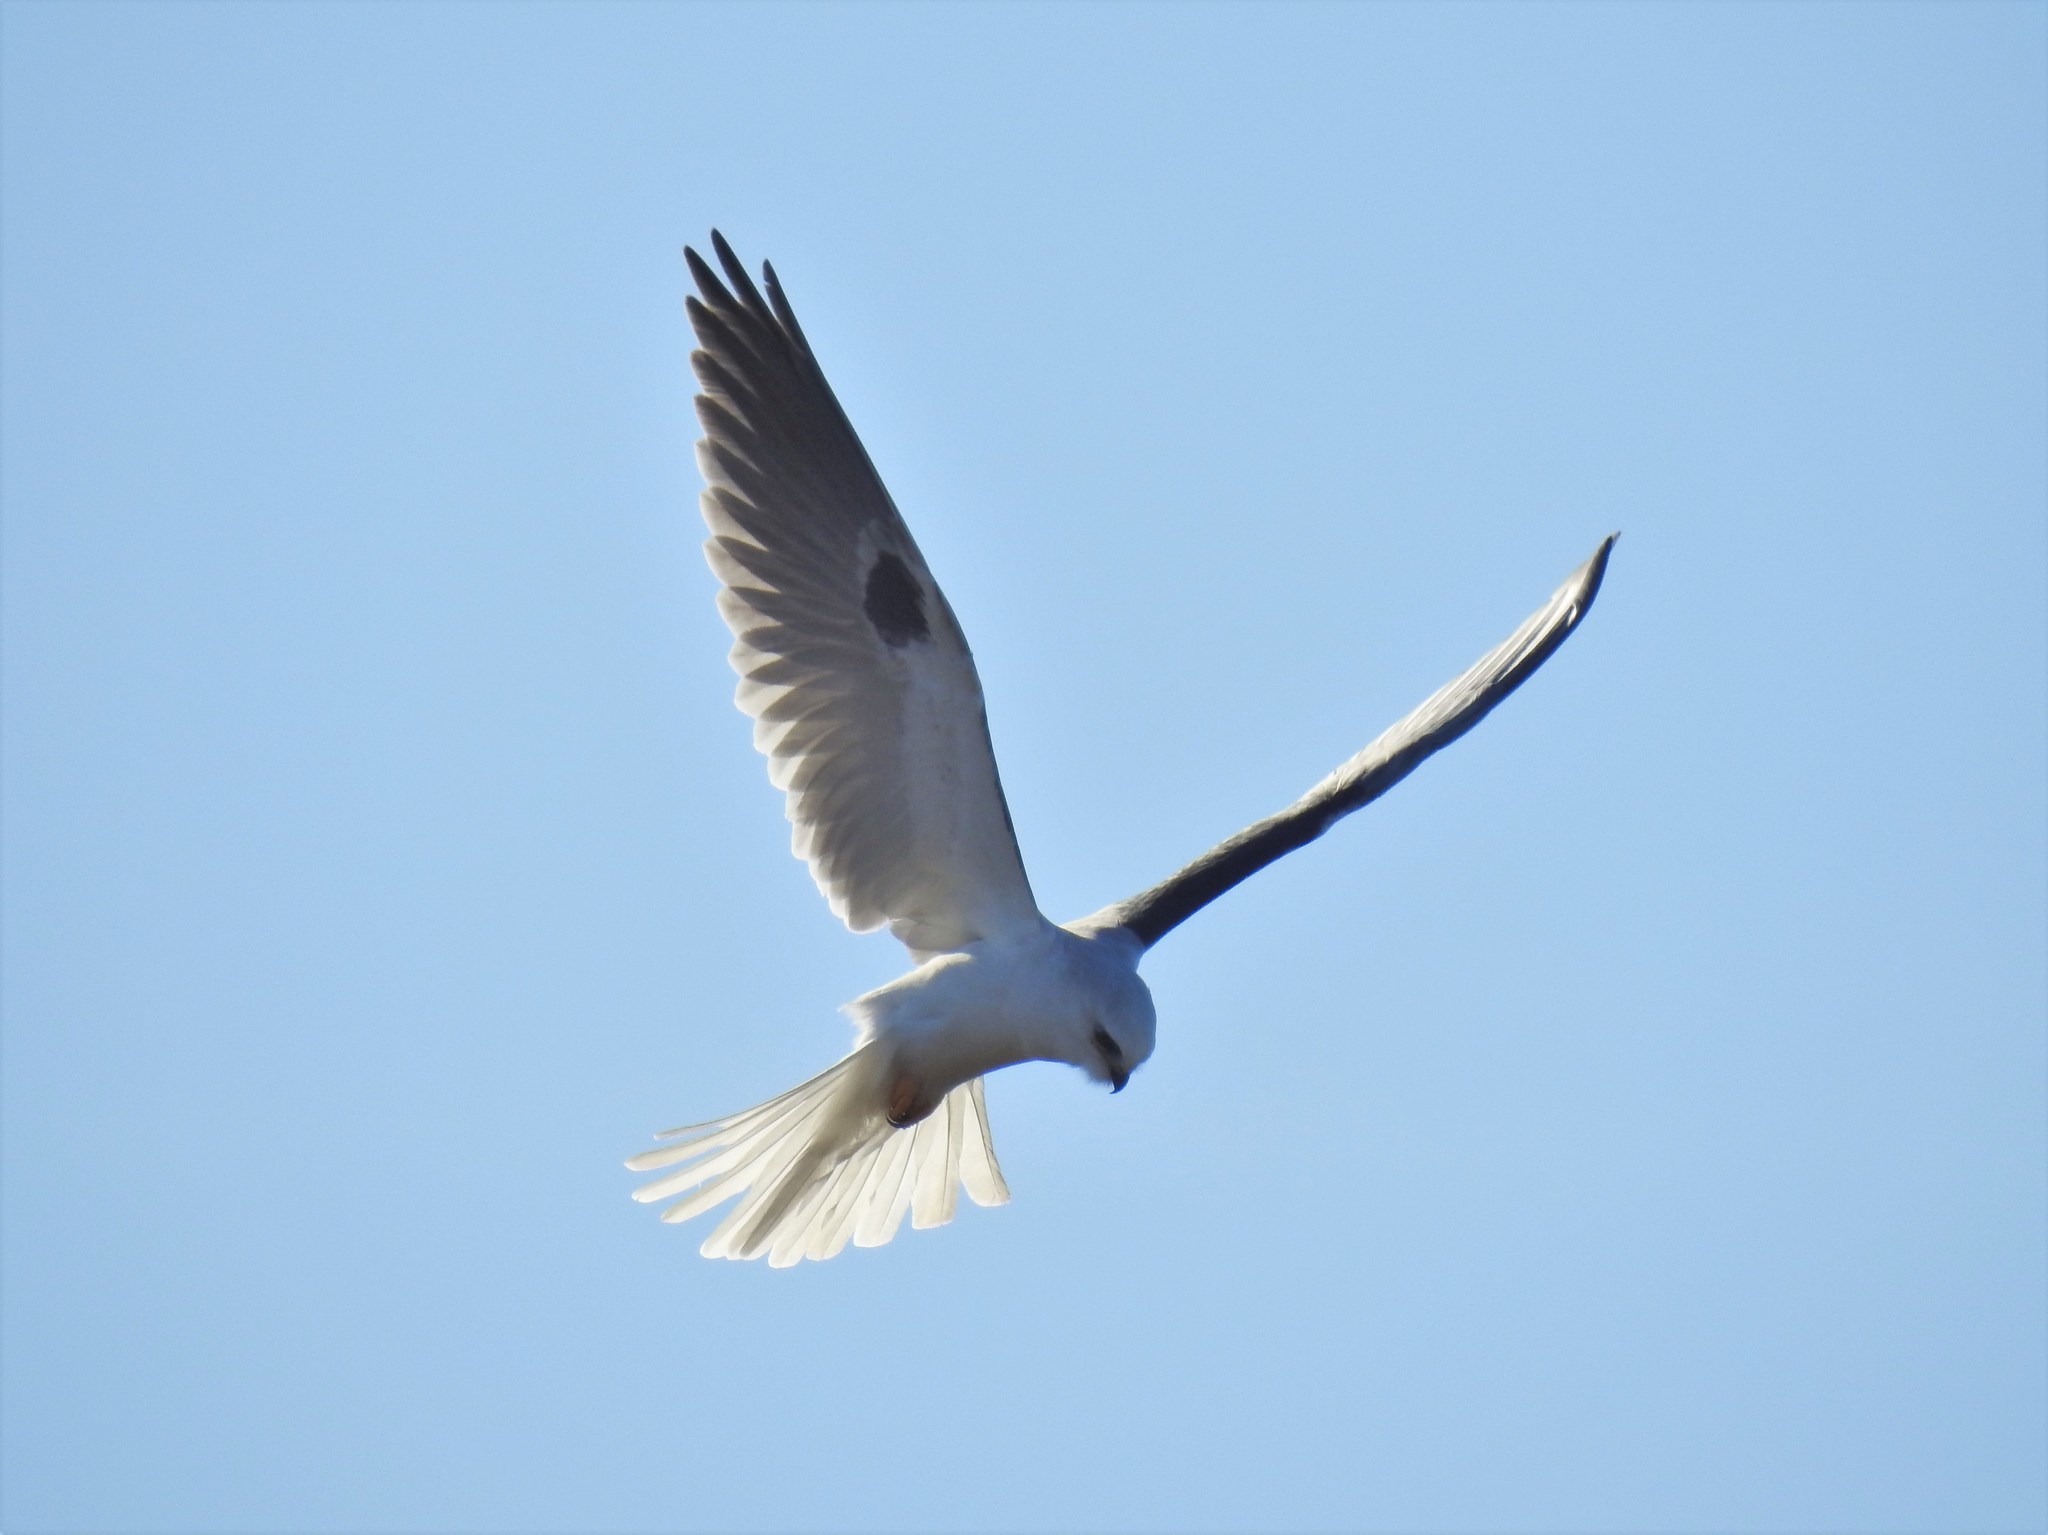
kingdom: Animalia
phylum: Chordata
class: Aves
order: Accipitriformes
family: Accipitridae
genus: Elanus
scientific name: Elanus leucurus
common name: White-tailed kite
